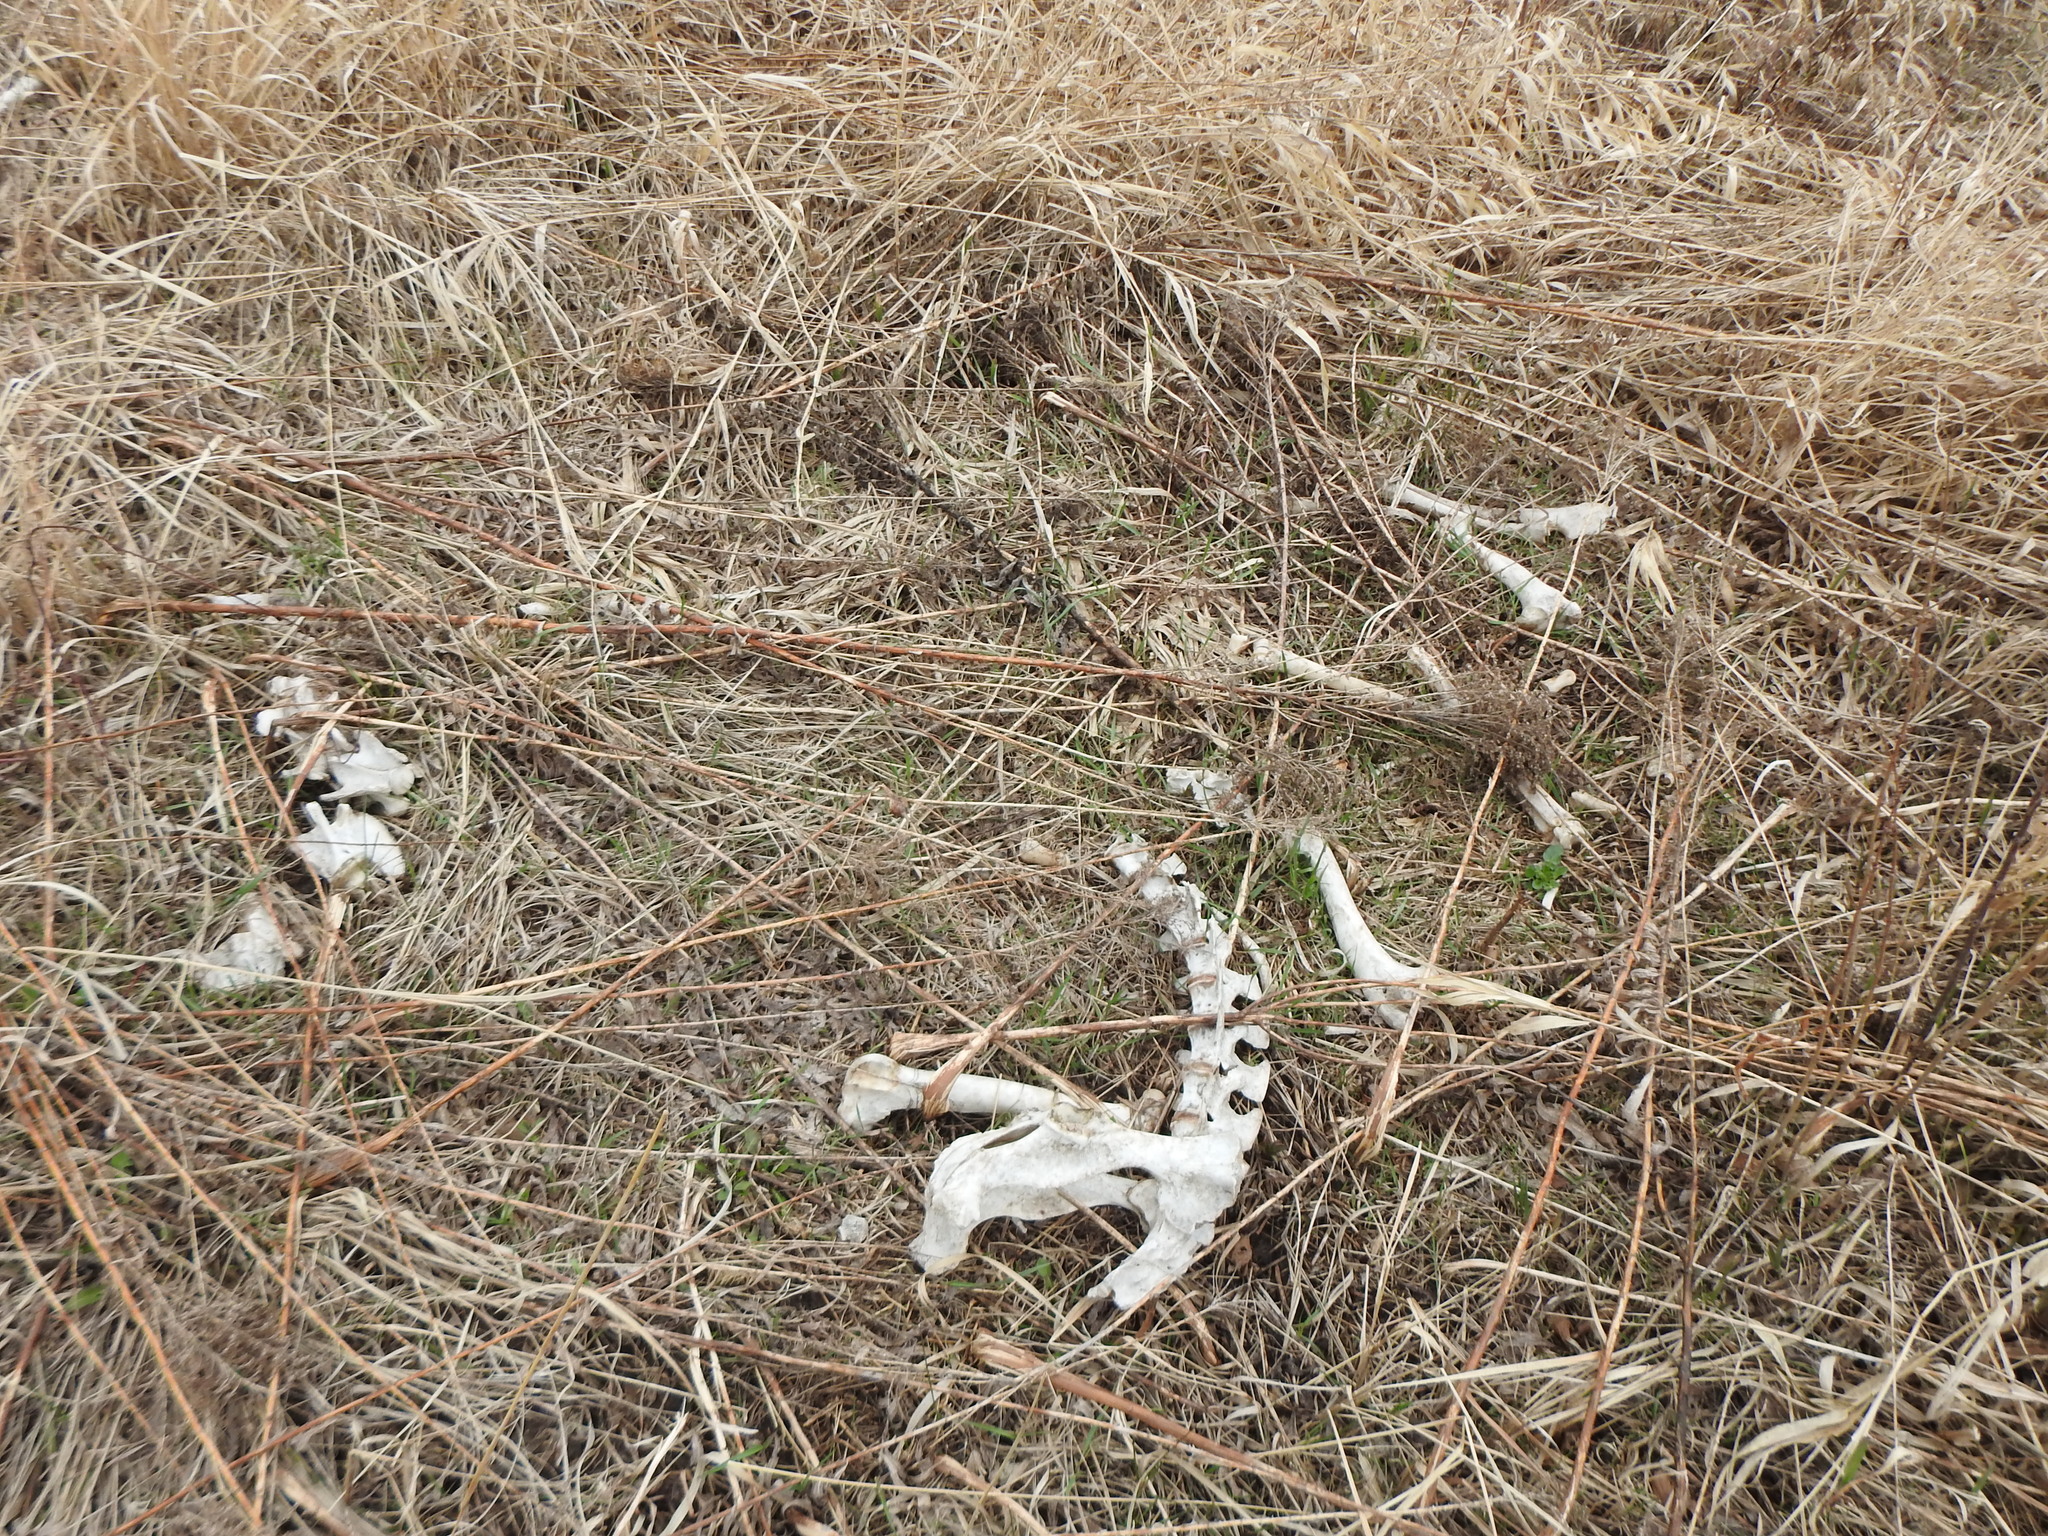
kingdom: Animalia
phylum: Chordata
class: Mammalia
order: Artiodactyla
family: Cervidae
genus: Odocoileus
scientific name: Odocoileus virginianus
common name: White-tailed deer
